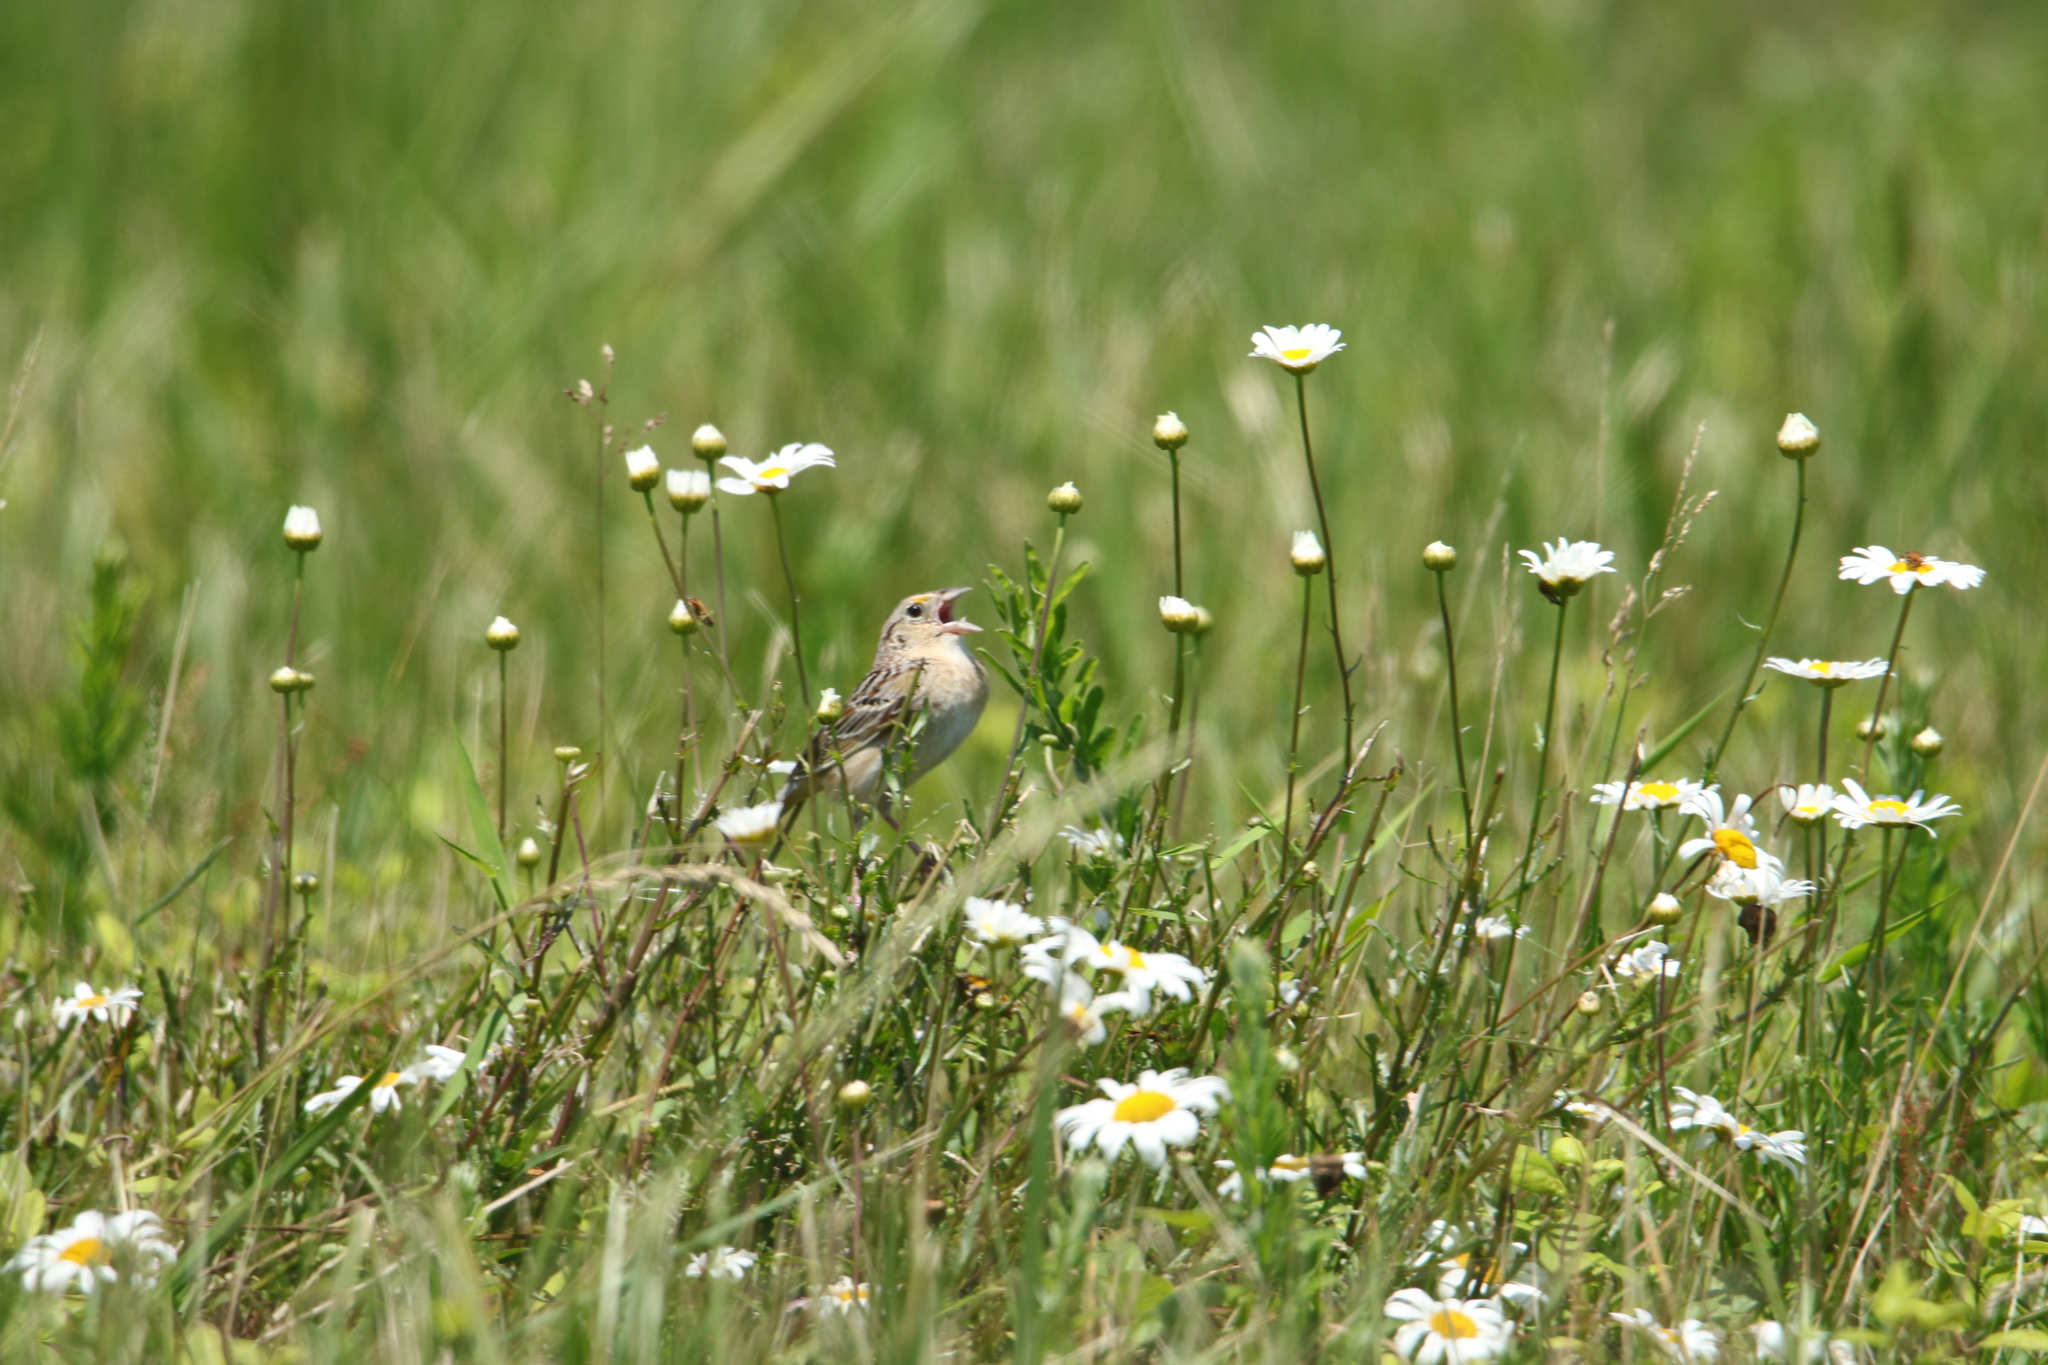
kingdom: Animalia
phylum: Chordata
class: Aves
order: Passeriformes
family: Passerellidae
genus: Ammodramus
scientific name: Ammodramus savannarum
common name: Grasshopper sparrow
